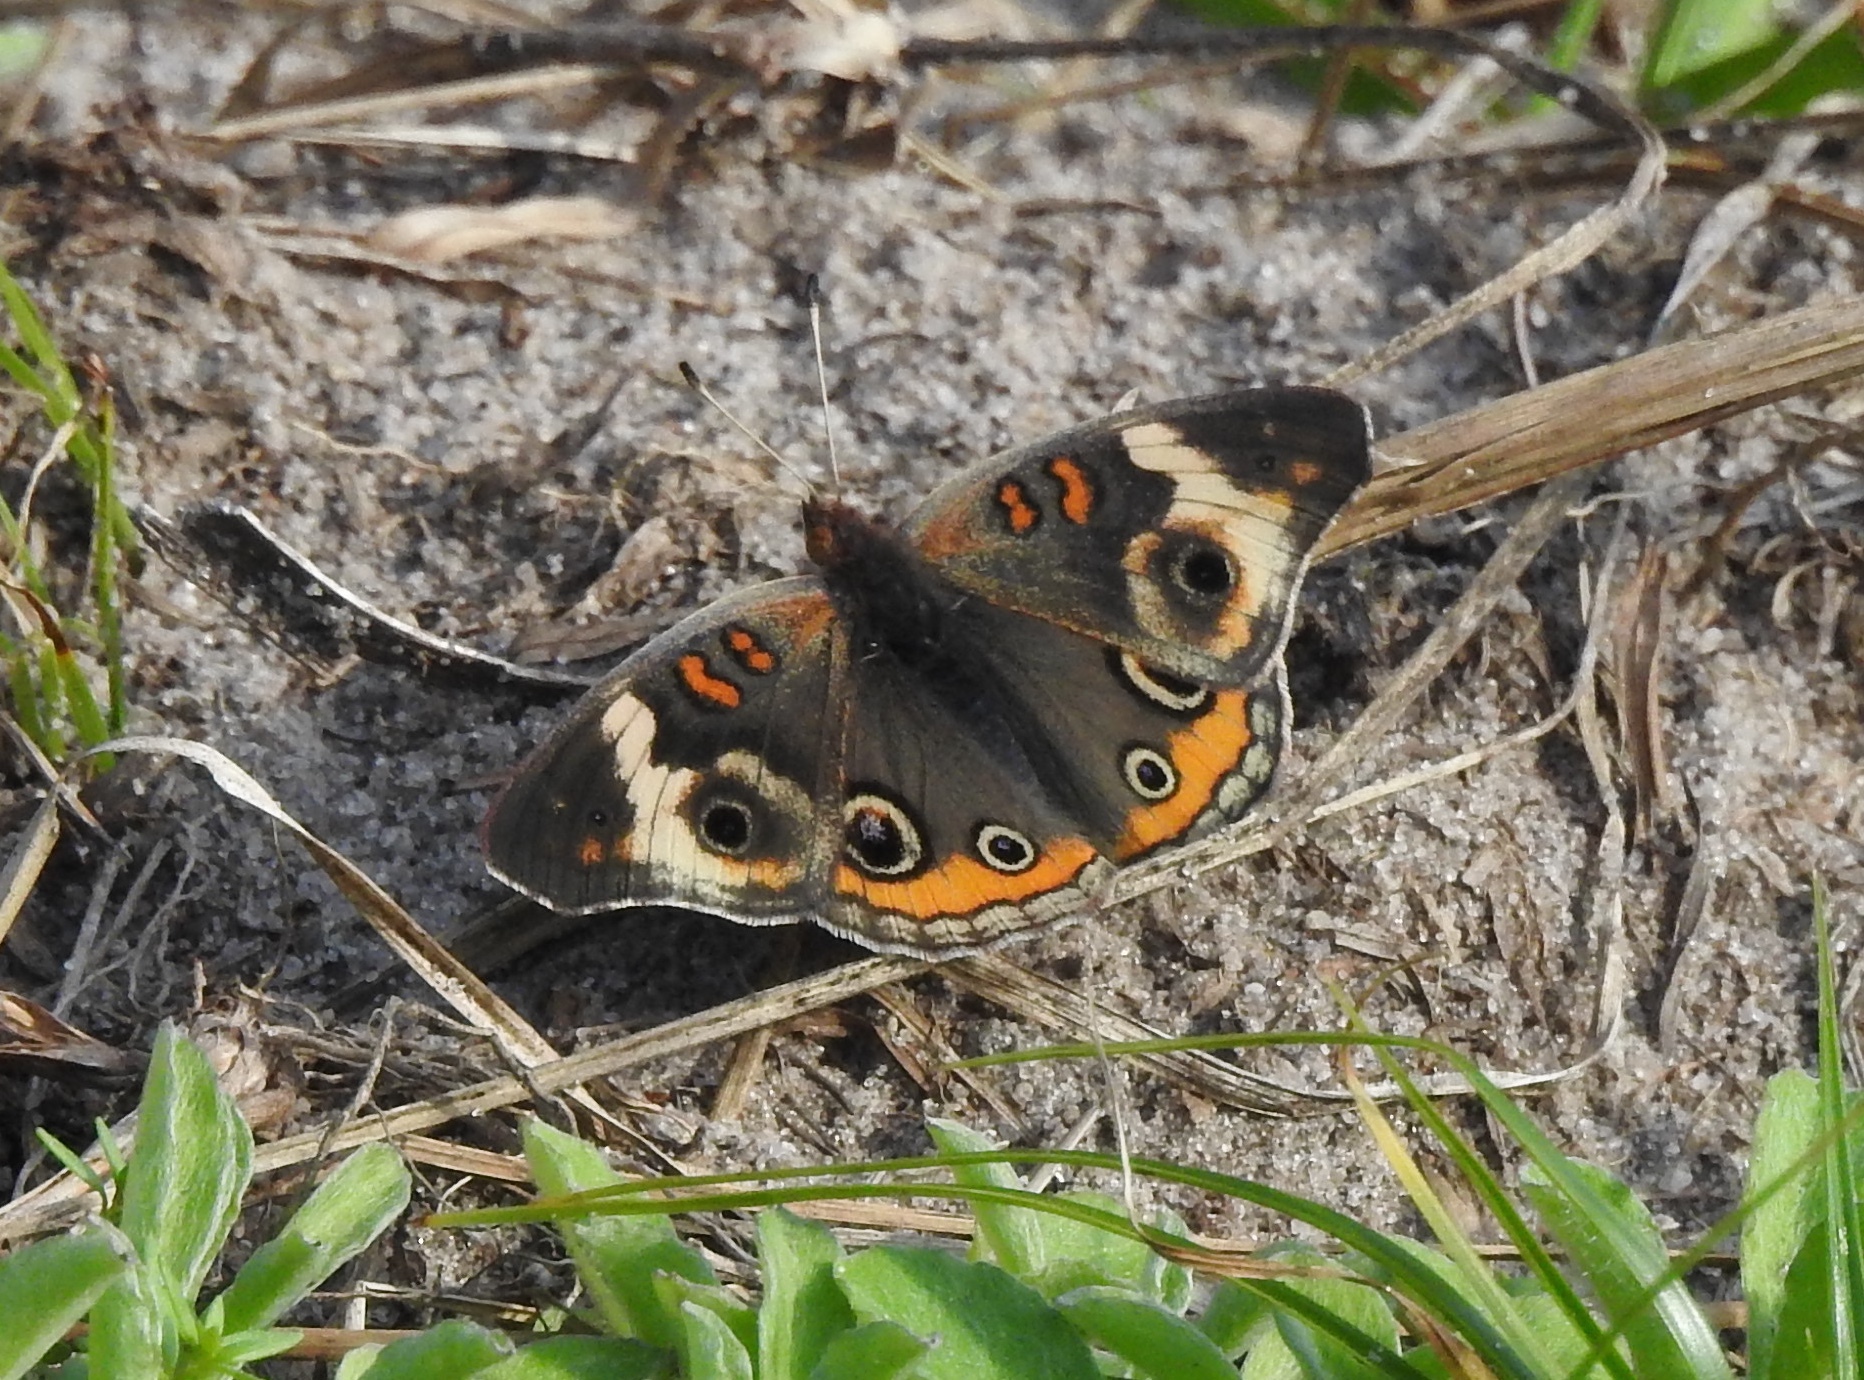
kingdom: Animalia
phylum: Arthropoda
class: Insecta
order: Lepidoptera
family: Nymphalidae
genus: Junonia
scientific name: Junonia coenia
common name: Common buckeye
